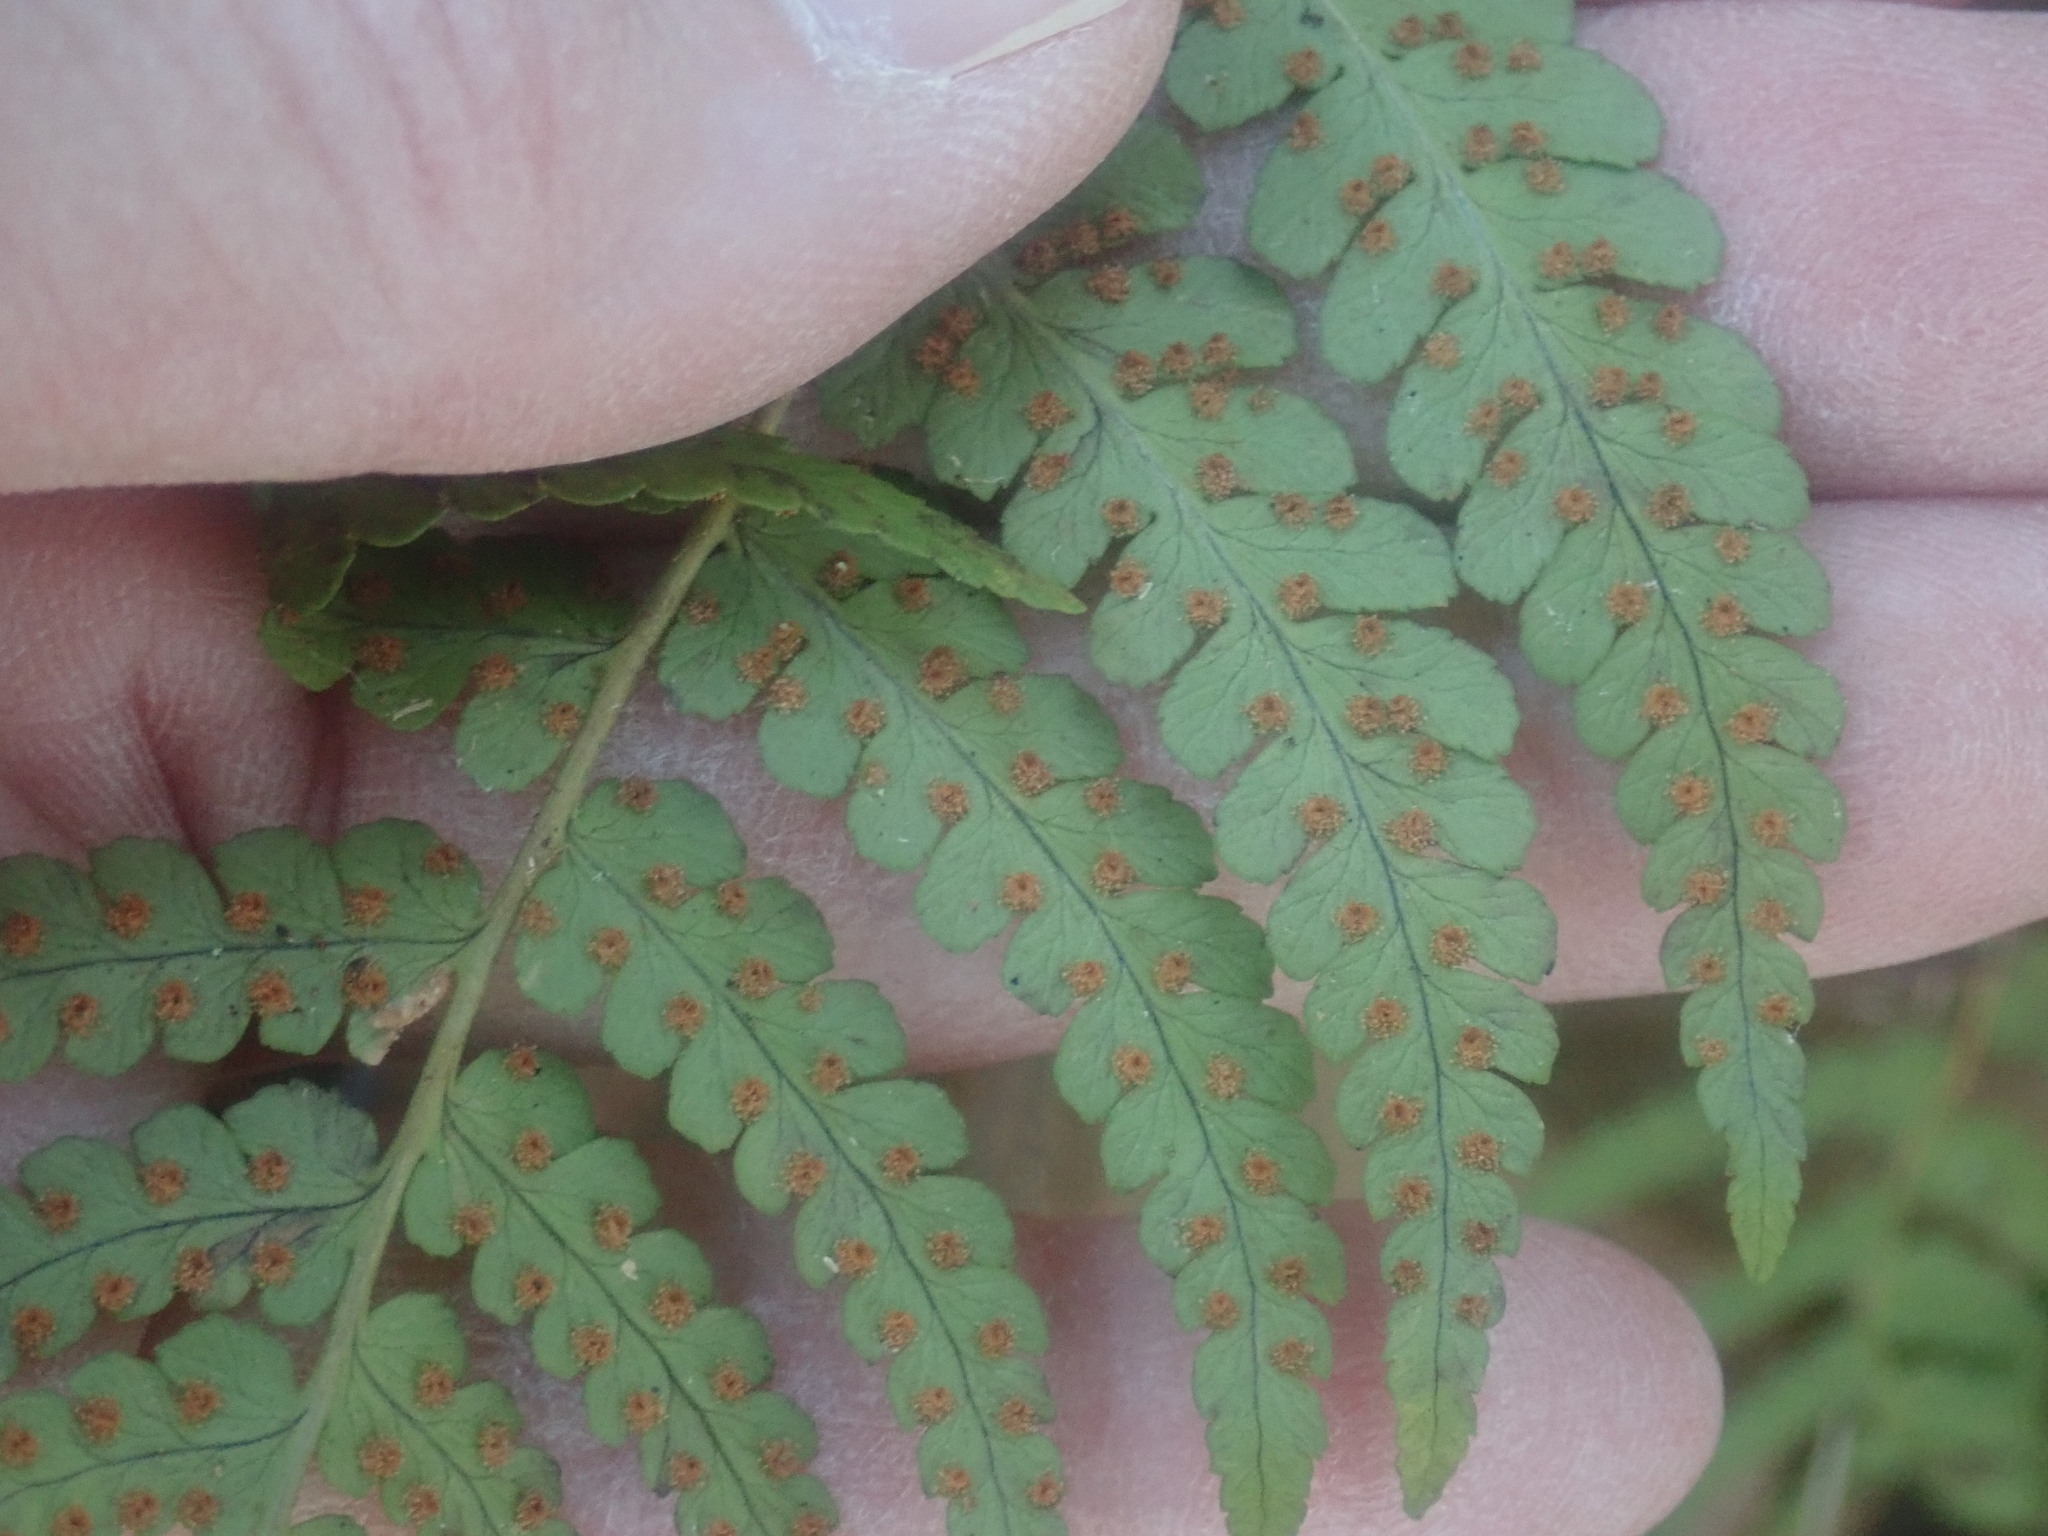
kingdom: Plantae
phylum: Tracheophyta
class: Polypodiopsida
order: Polypodiales
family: Dryopteridaceae
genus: Dryopteris
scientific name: Dryopteris marginalis
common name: Marginal wood fern
